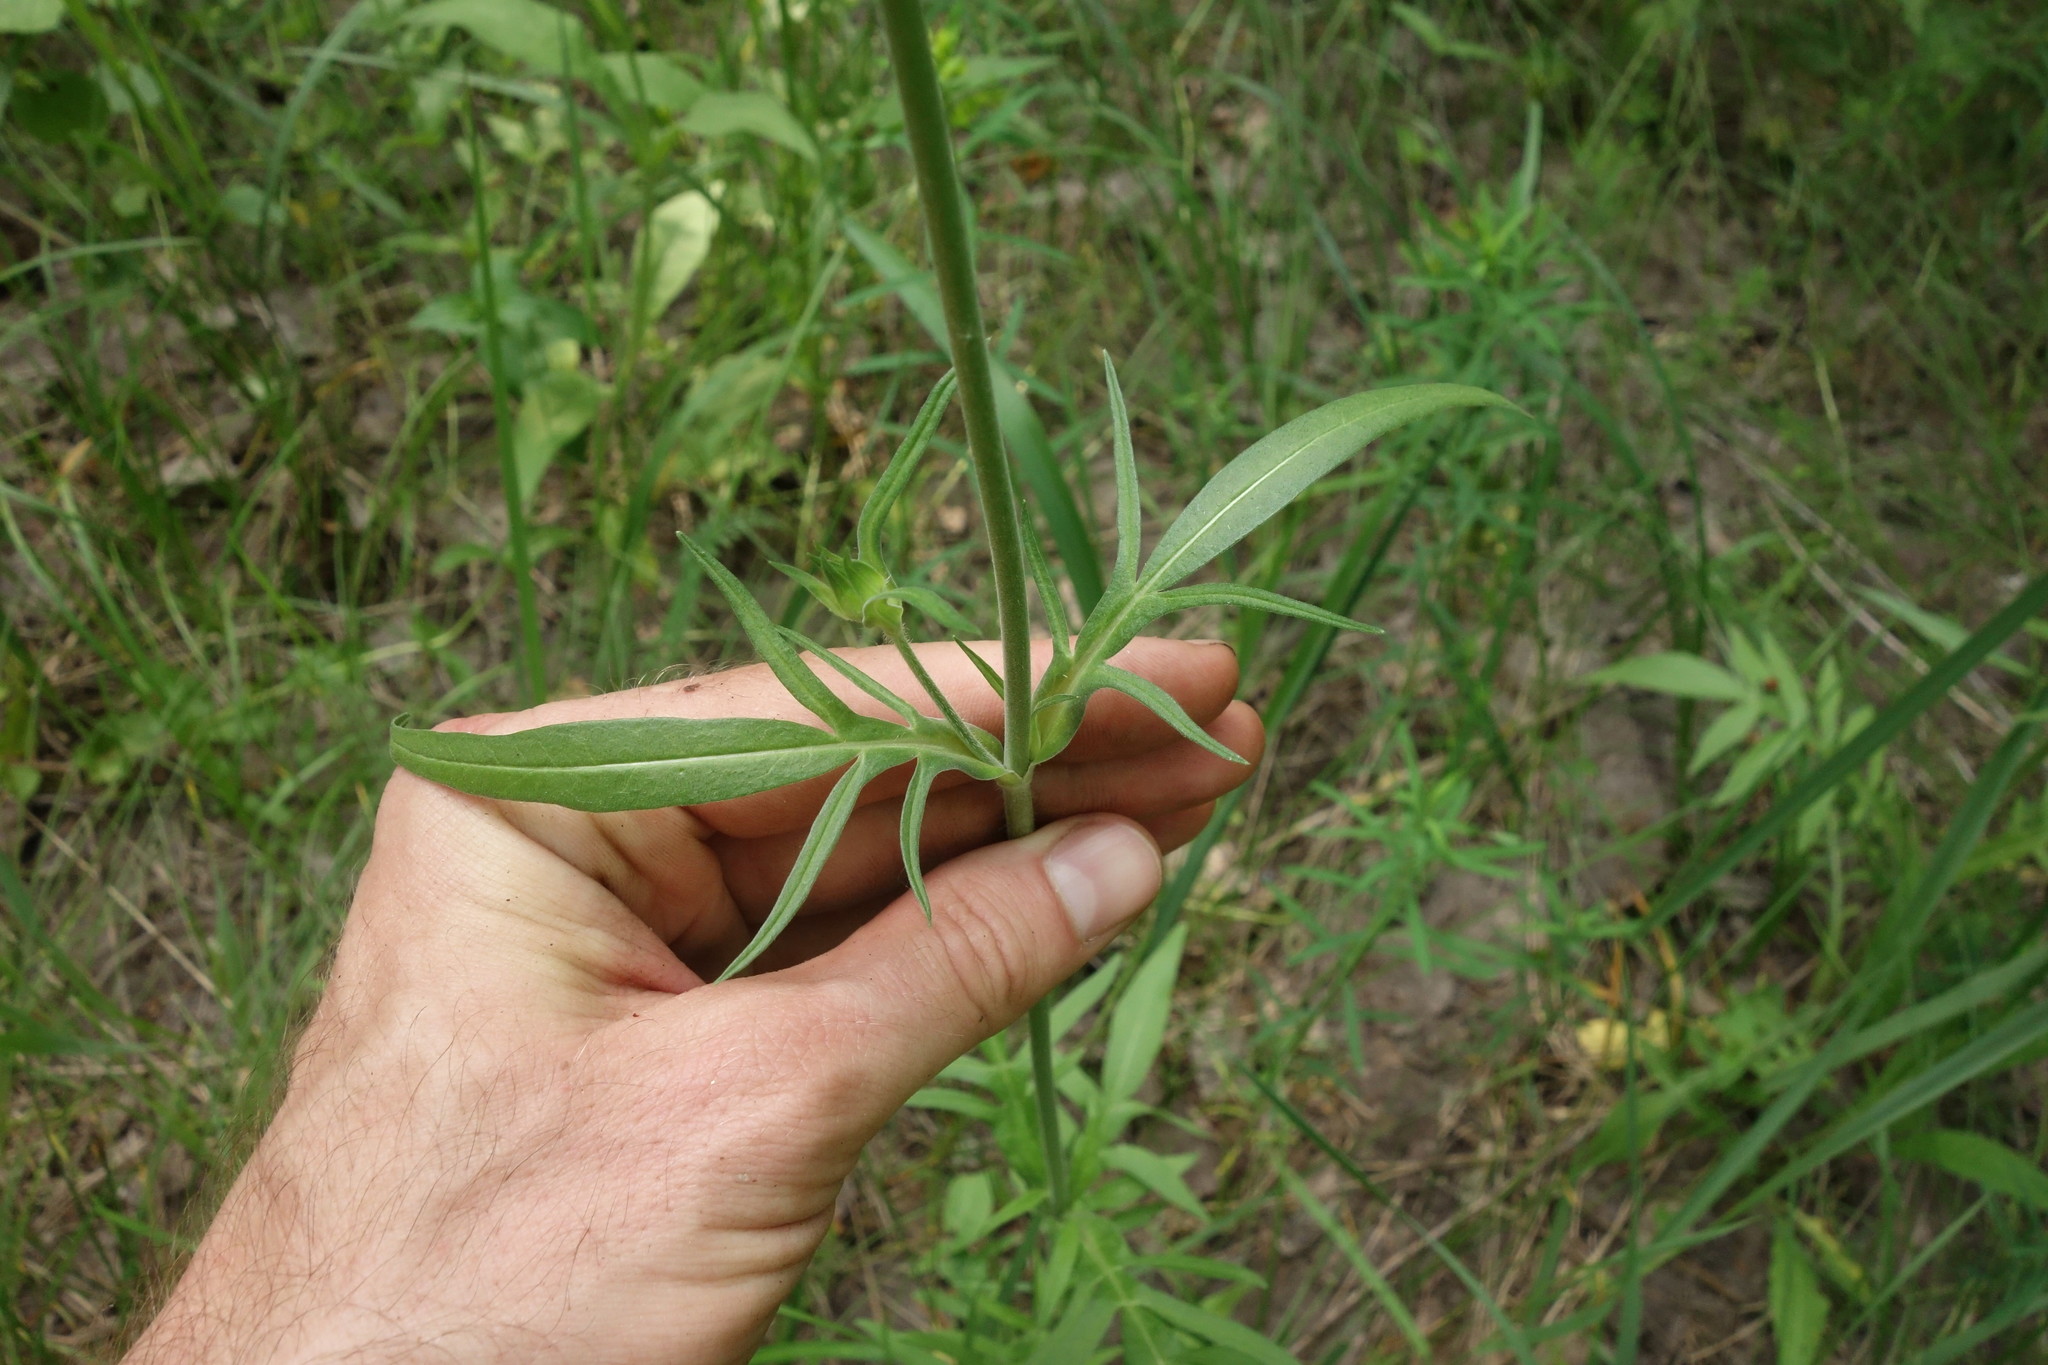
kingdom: Plantae
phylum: Tracheophyta
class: Magnoliopsida
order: Dipsacales
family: Caprifoliaceae
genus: Knautia
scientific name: Knautia arvensis
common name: Field scabiosa
